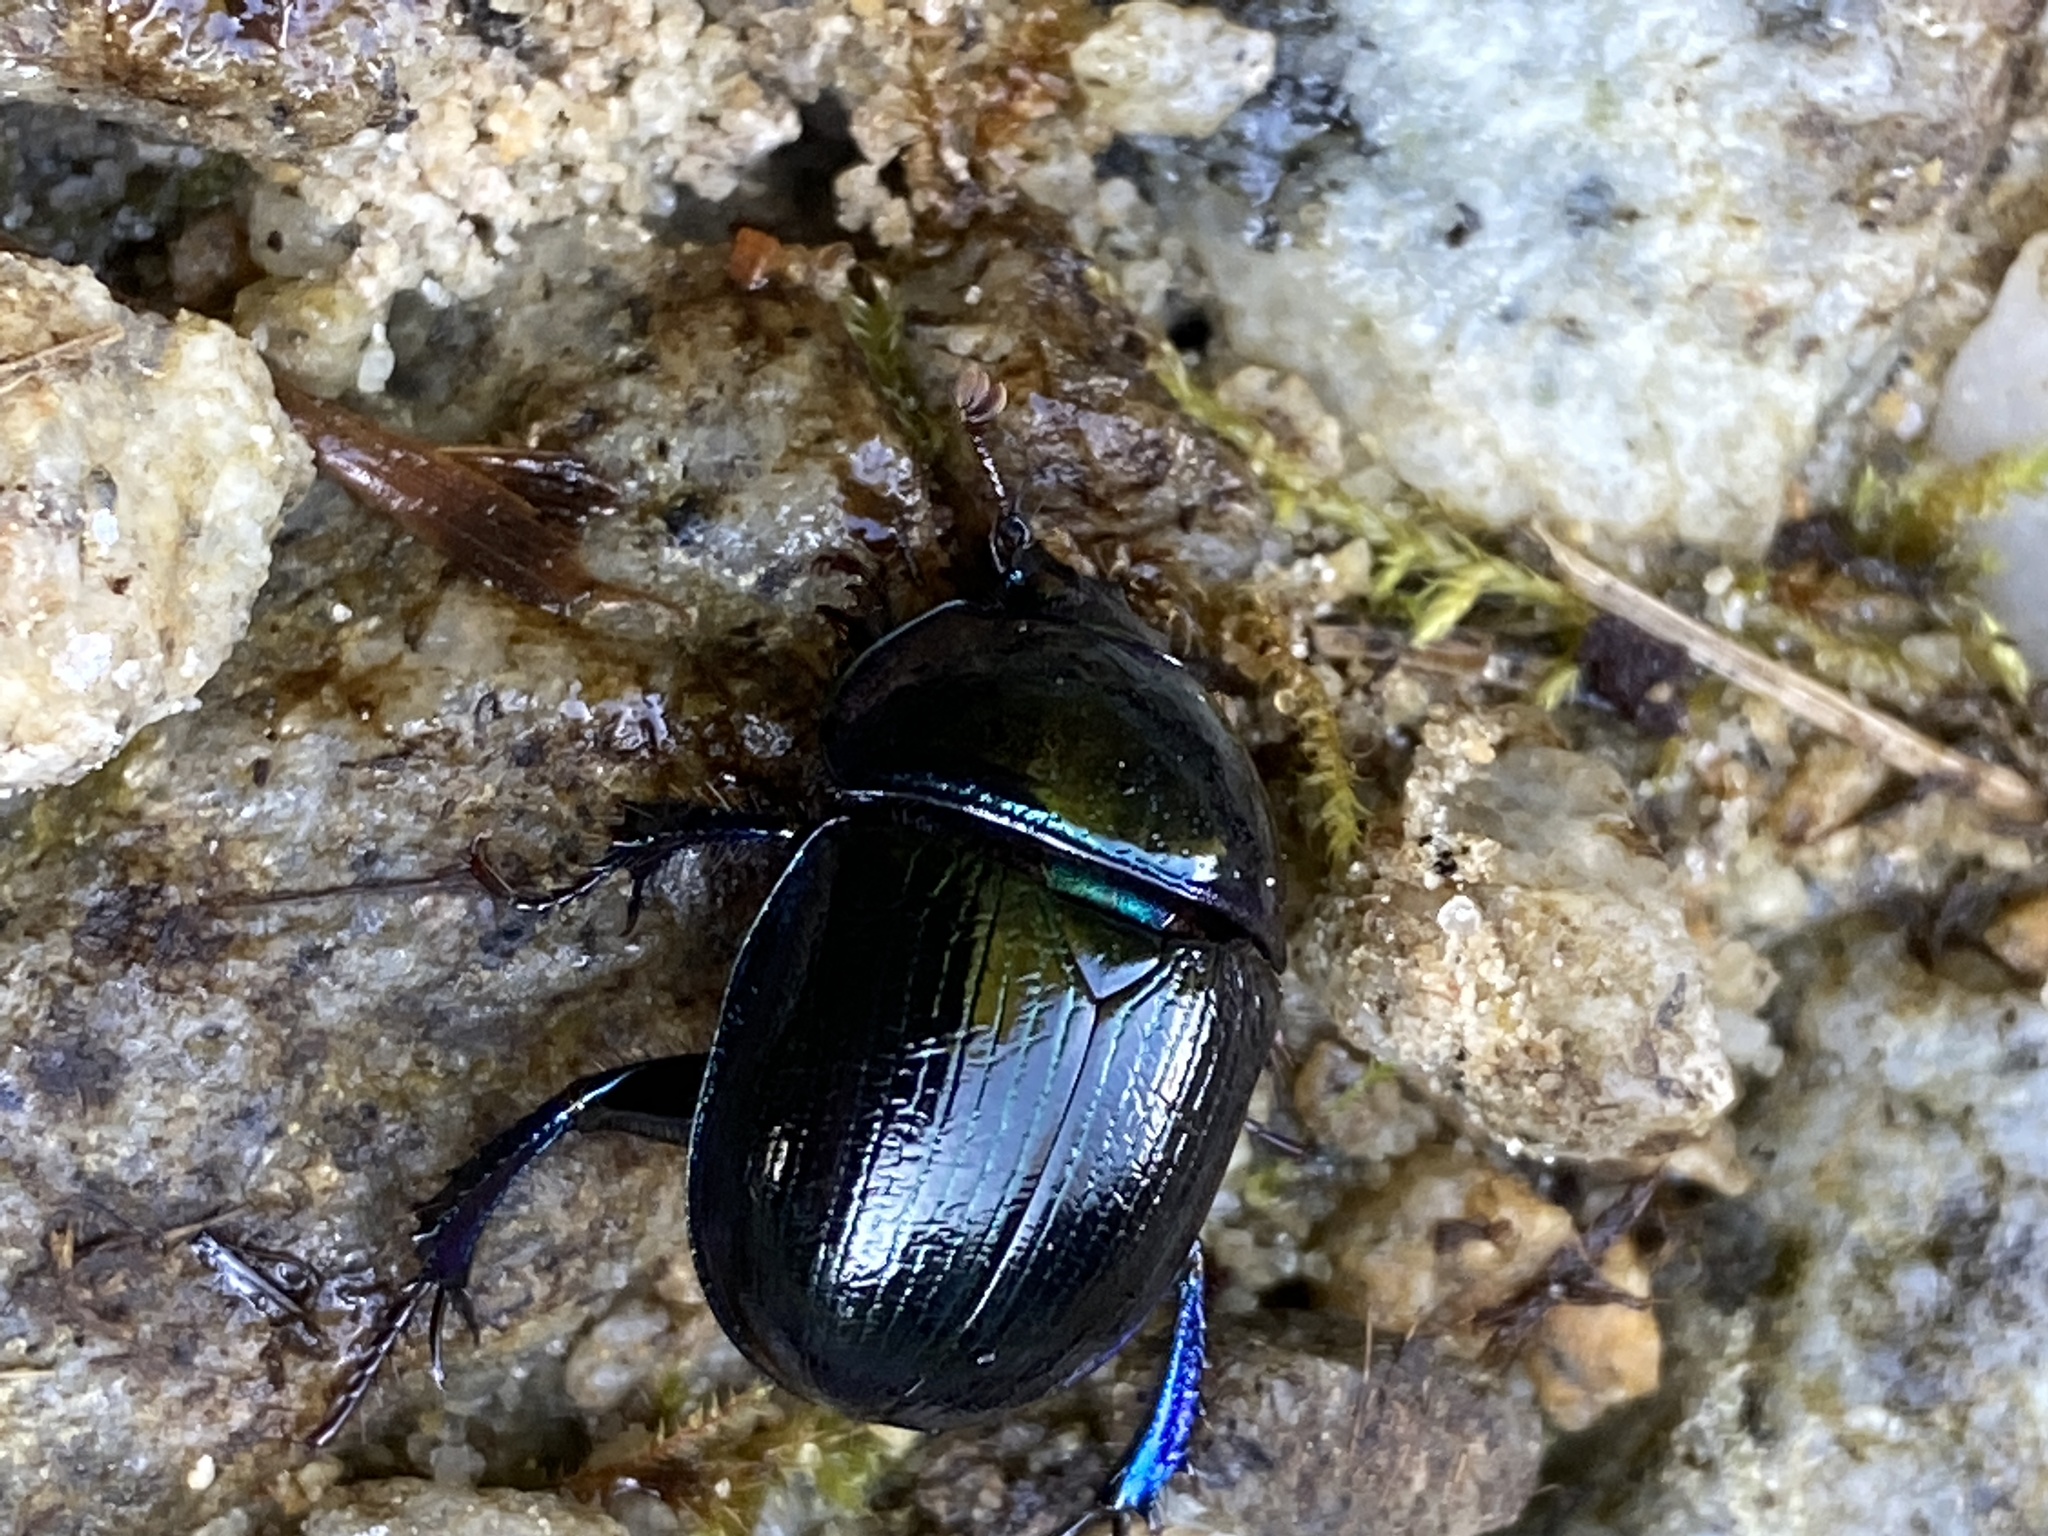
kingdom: Animalia
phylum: Arthropoda
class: Insecta
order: Coleoptera
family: Geotrupidae
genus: Anoplotrupes
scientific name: Anoplotrupes stercorosus
